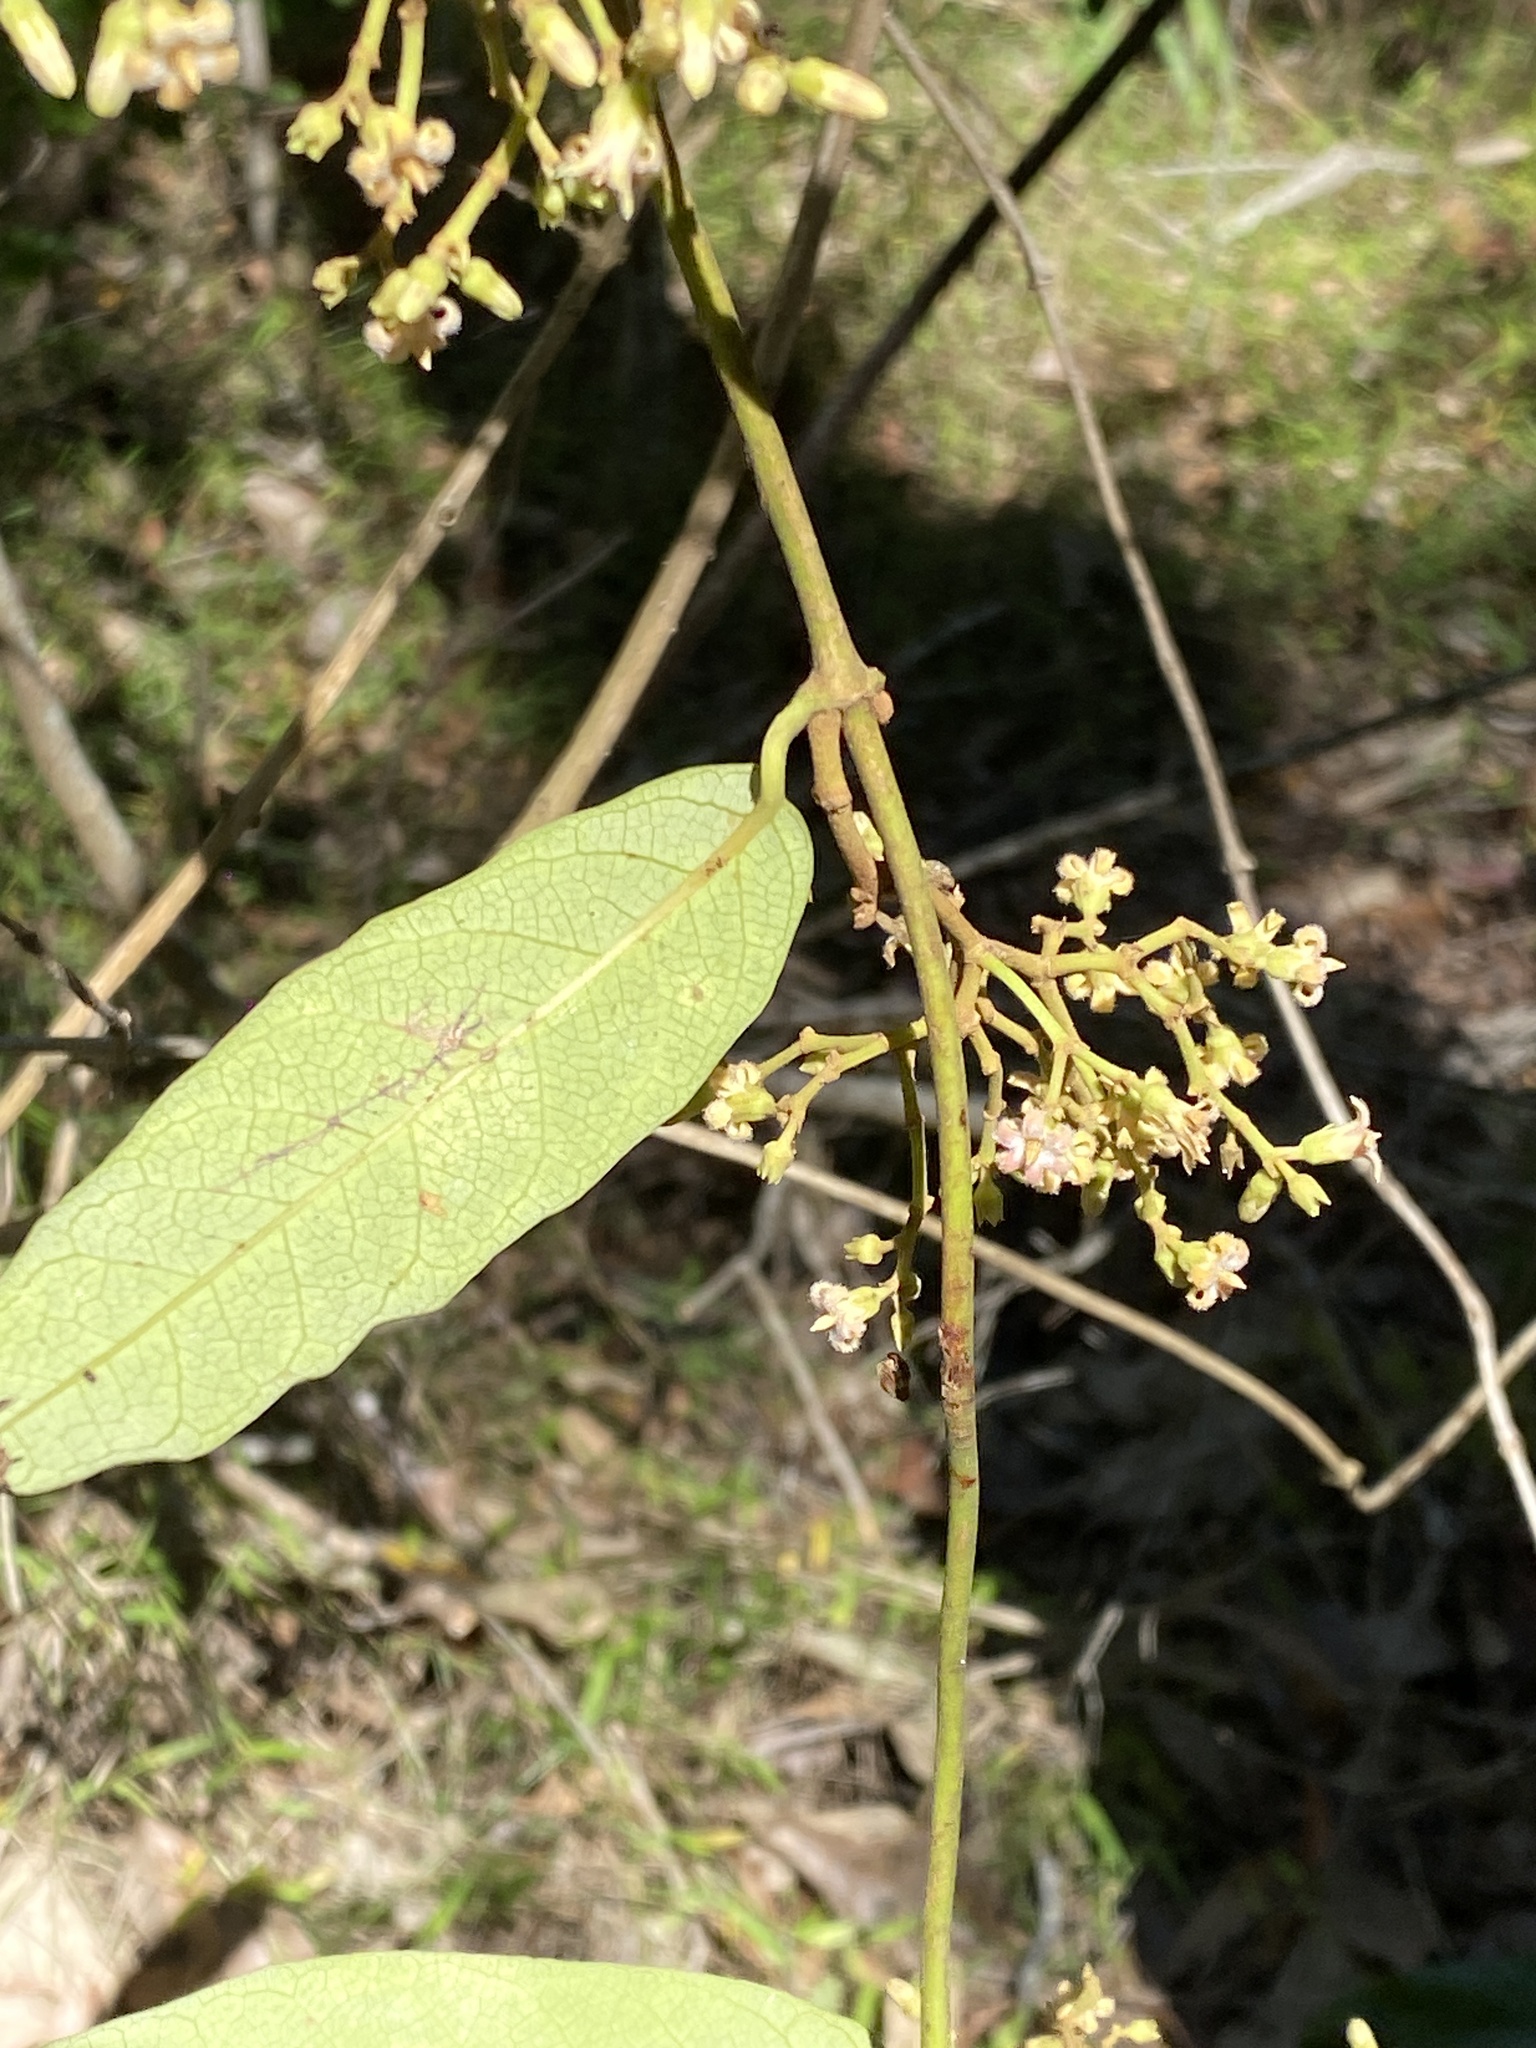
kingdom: Plantae
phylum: Tracheophyta
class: Magnoliopsida
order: Gentianales
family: Apocynaceae
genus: Parsonsia
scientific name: Parsonsia straminea
